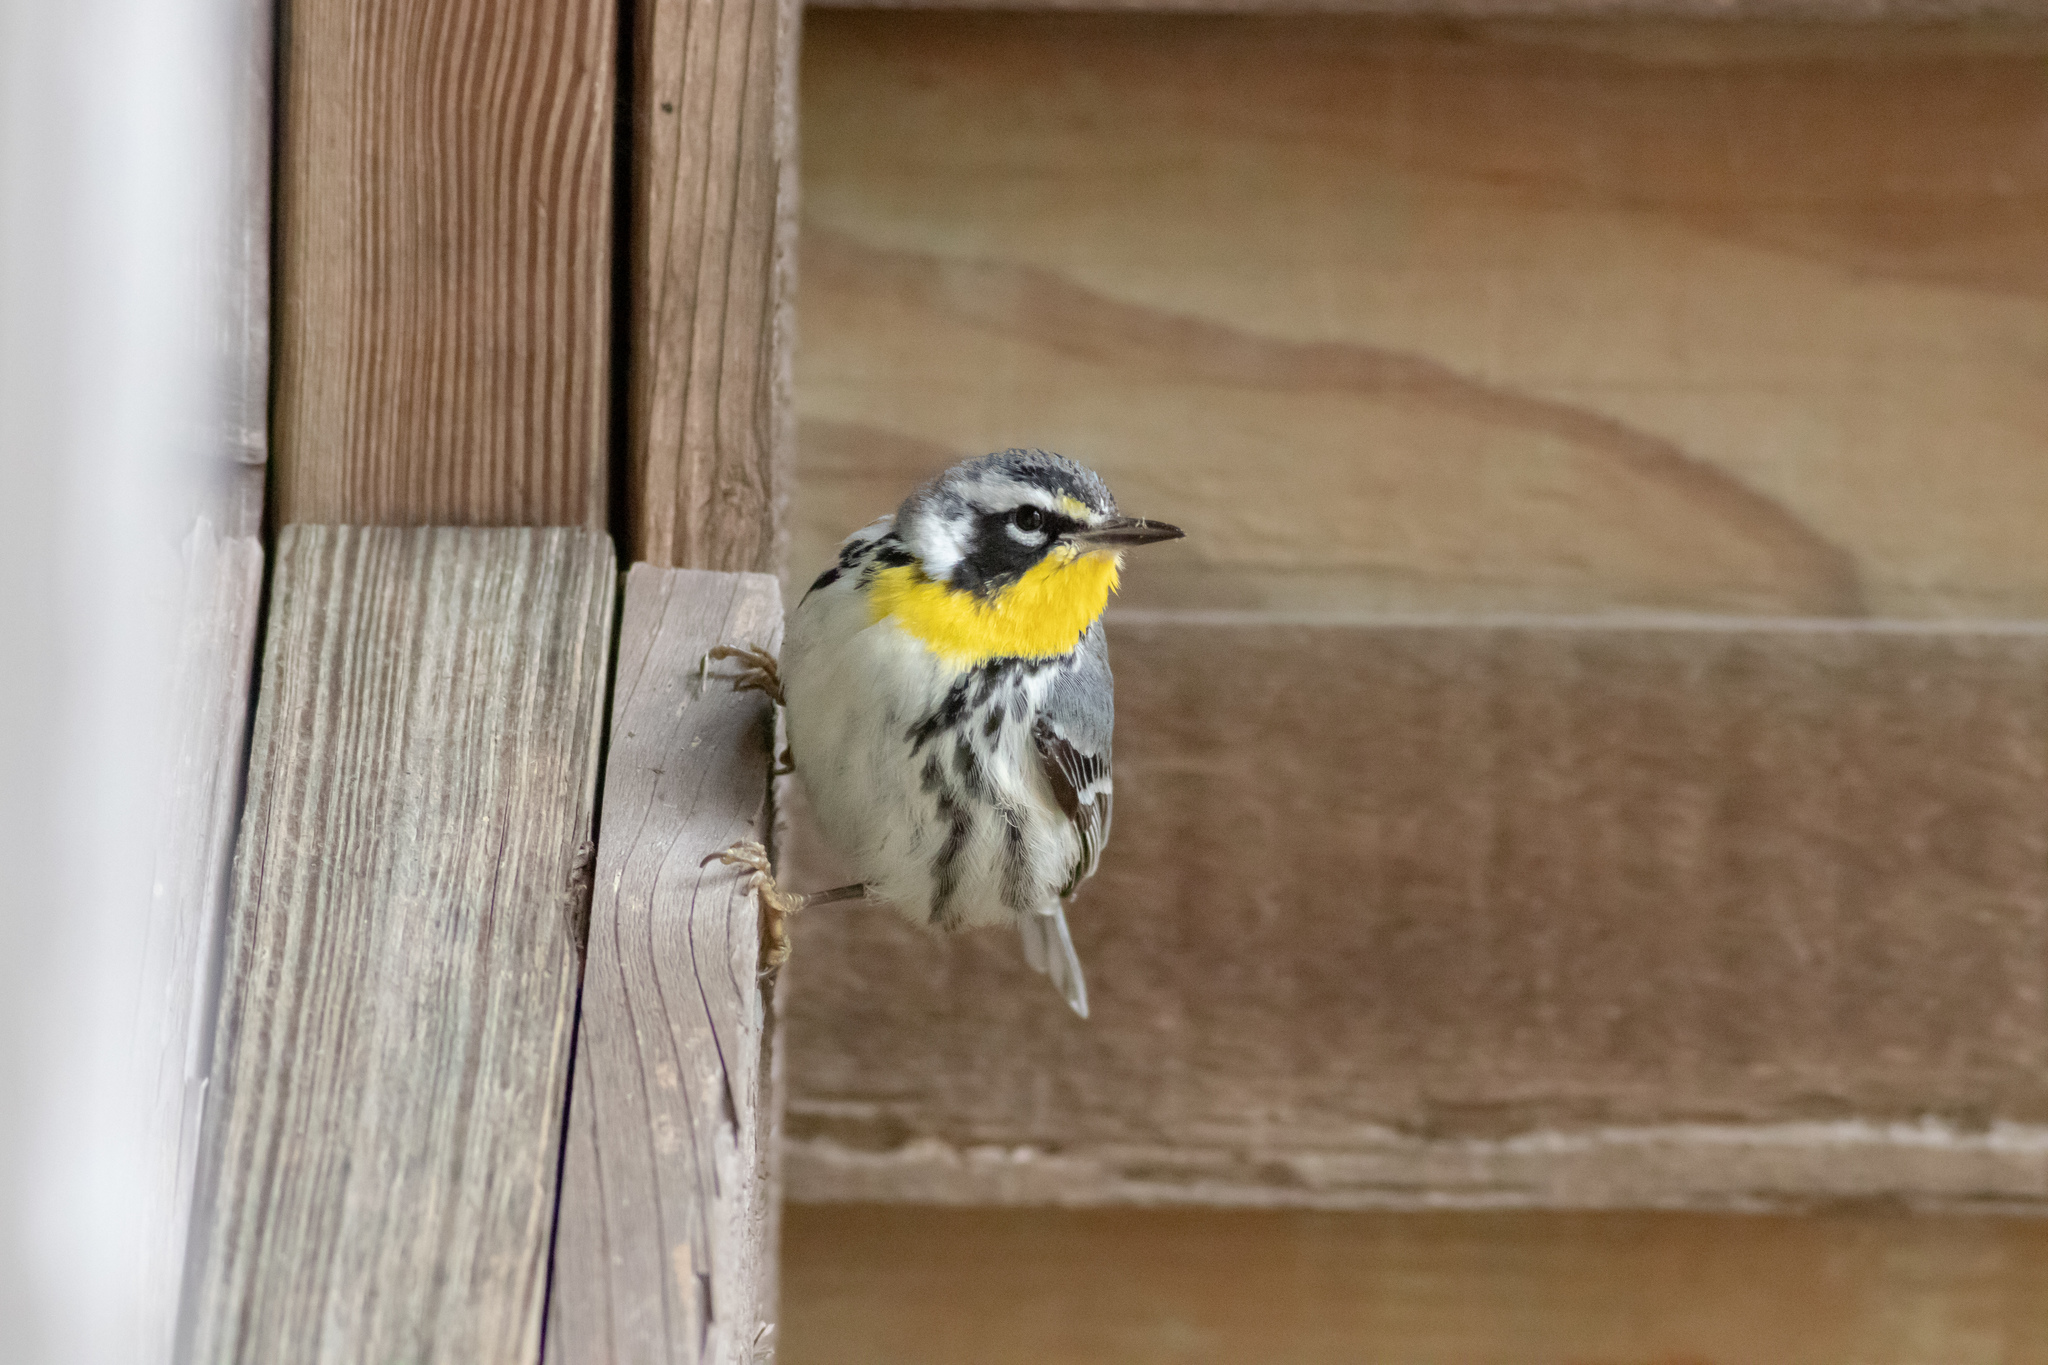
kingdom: Animalia
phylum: Chordata
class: Aves
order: Passeriformes
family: Parulidae
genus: Setophaga
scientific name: Setophaga dominica
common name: Yellow-throated warbler
